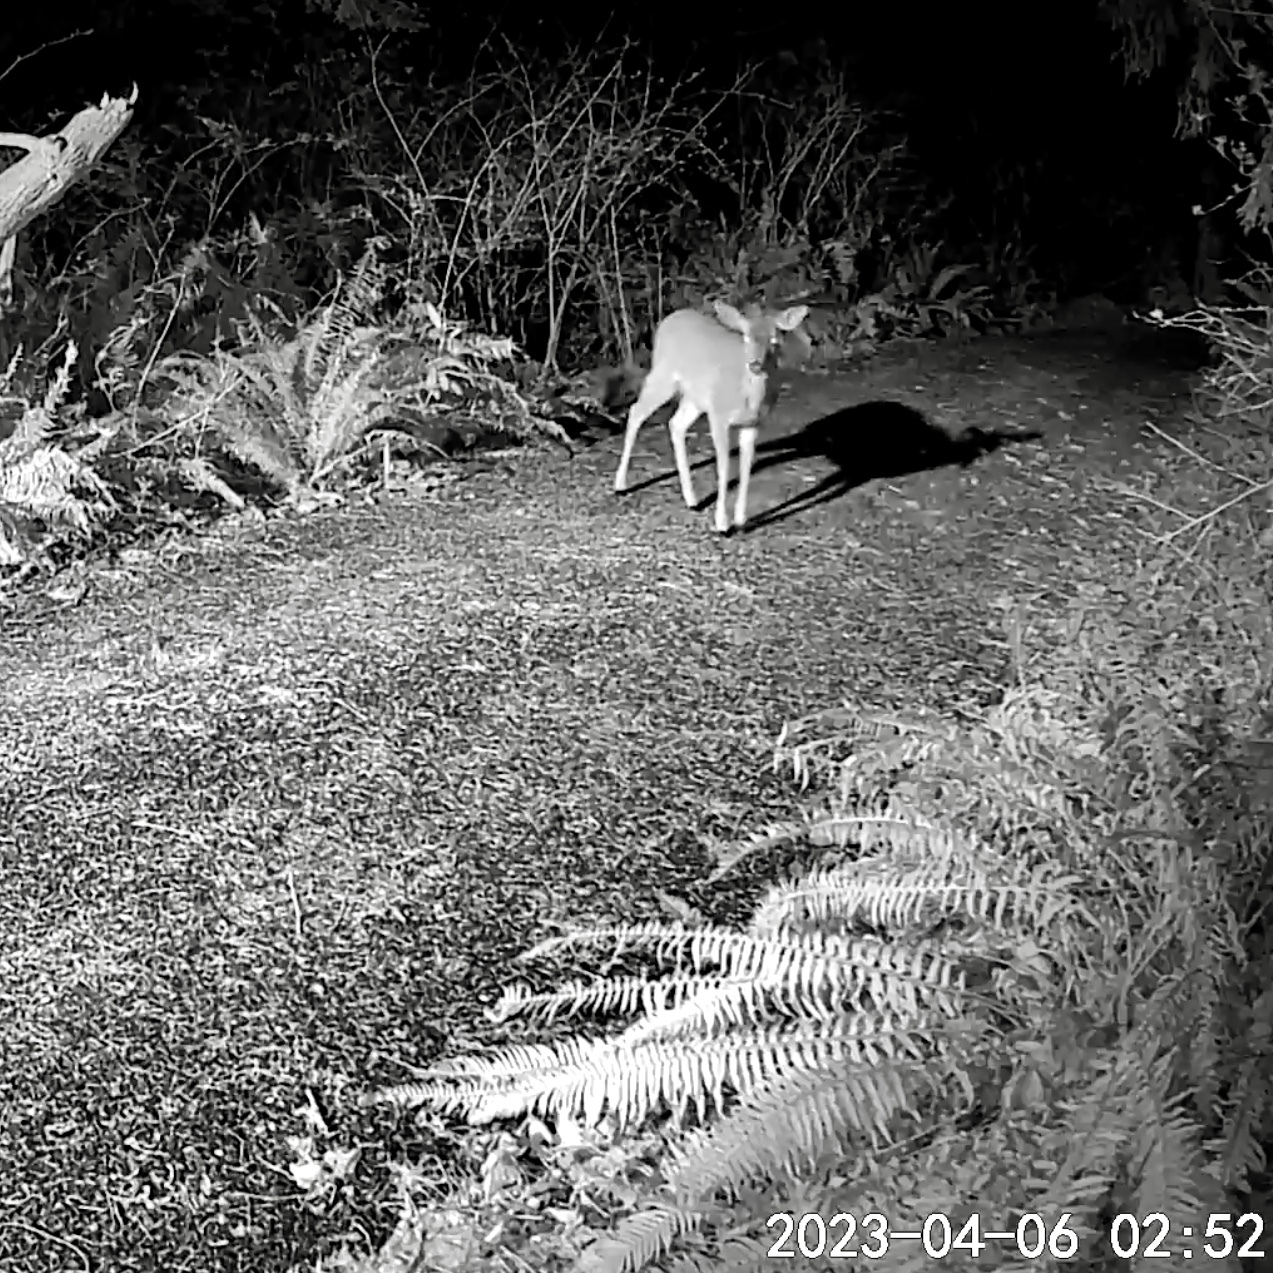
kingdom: Animalia
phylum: Chordata
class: Mammalia
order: Artiodactyla
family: Cervidae
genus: Odocoileus
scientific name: Odocoileus hemionus
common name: Mule deer
